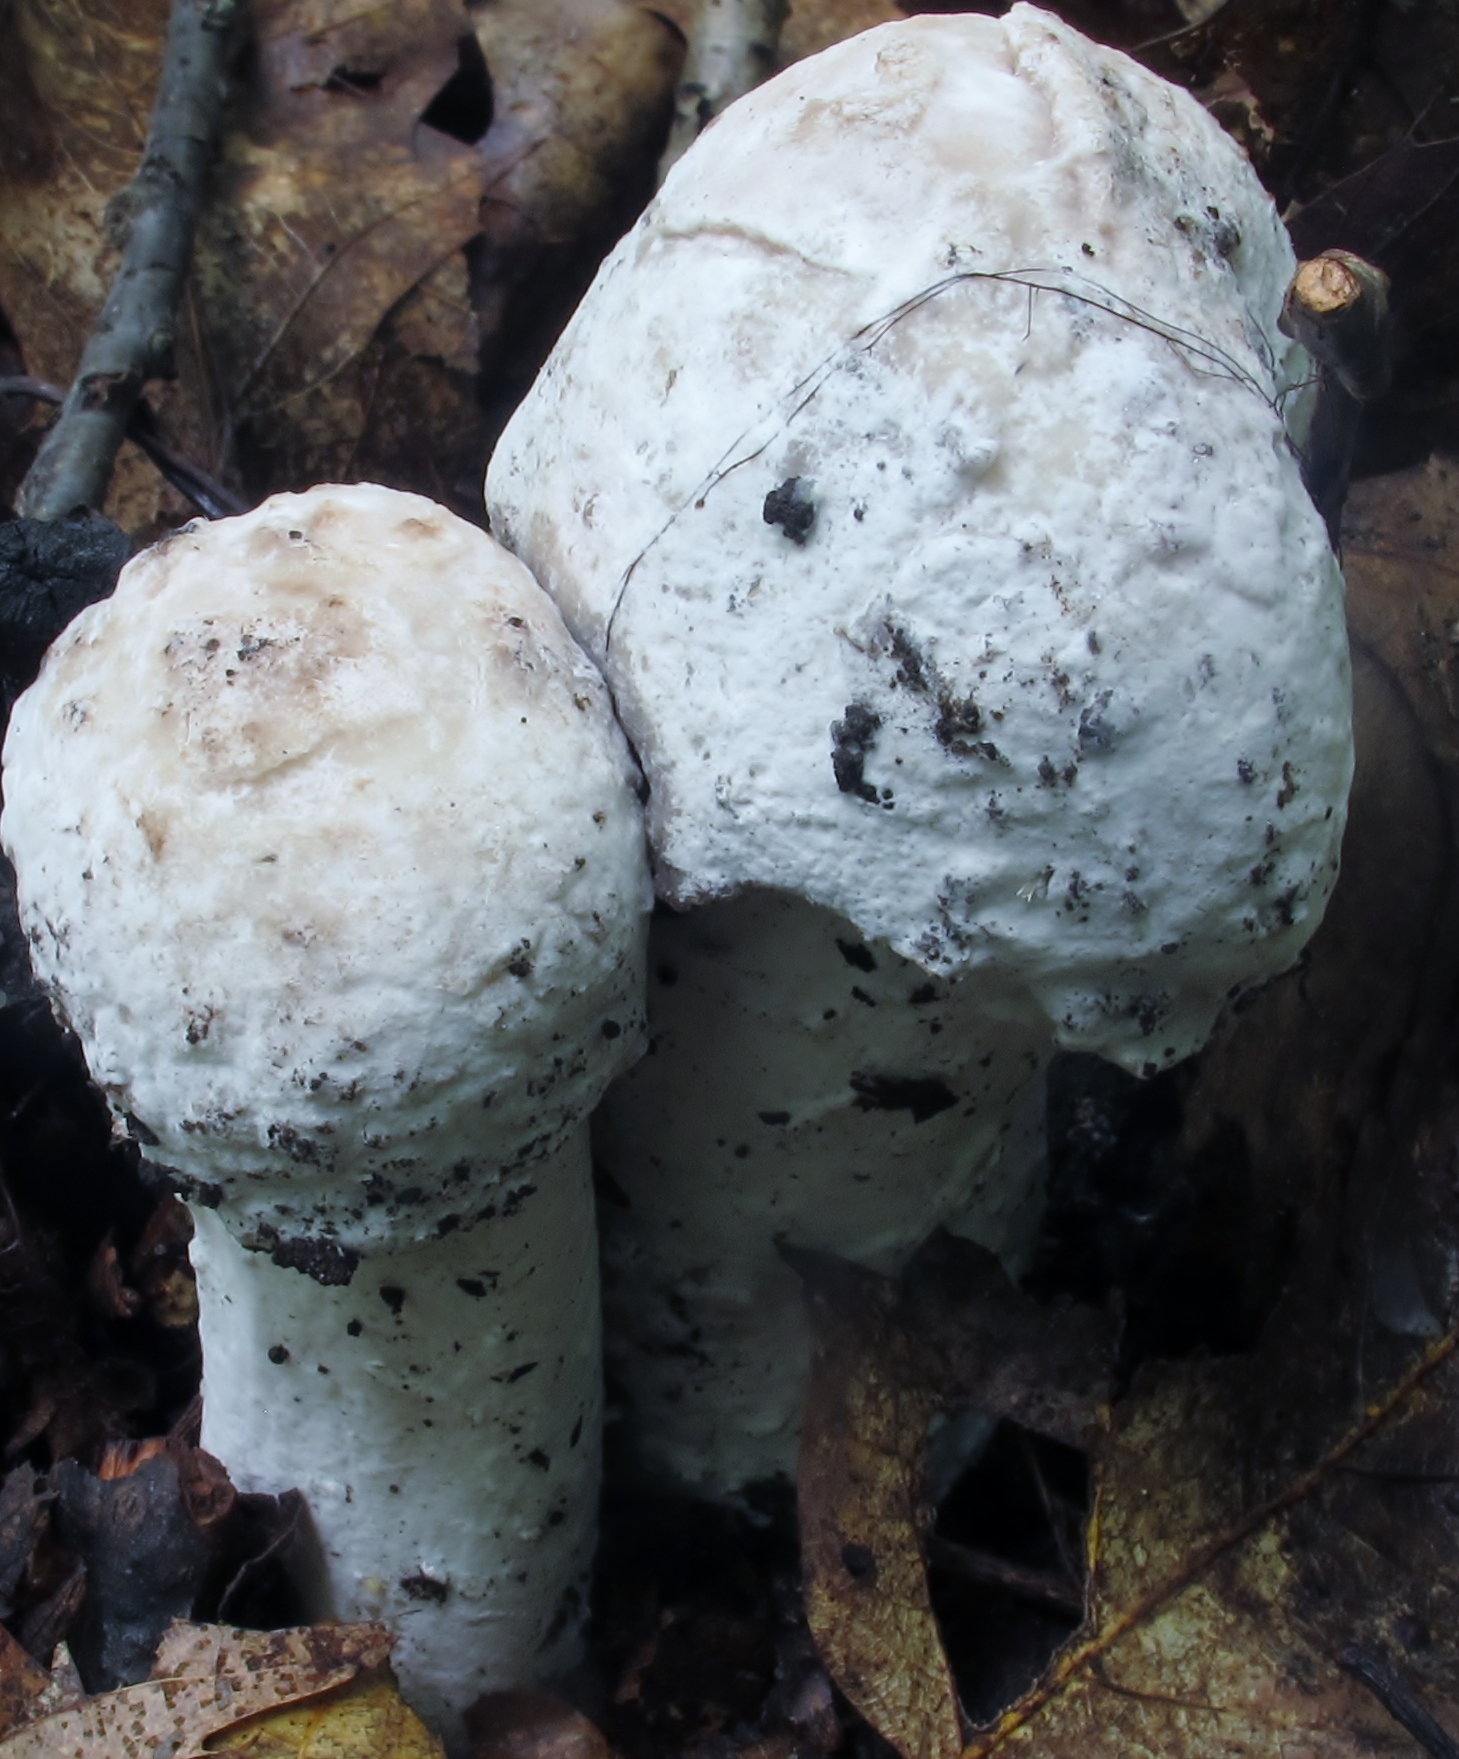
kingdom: Fungi
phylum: Ascomycota
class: Sordariomycetes
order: Hypocreales
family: Hypocreaceae
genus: Hypomyces
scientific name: Hypomyces hyalinus
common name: Amanita mold
